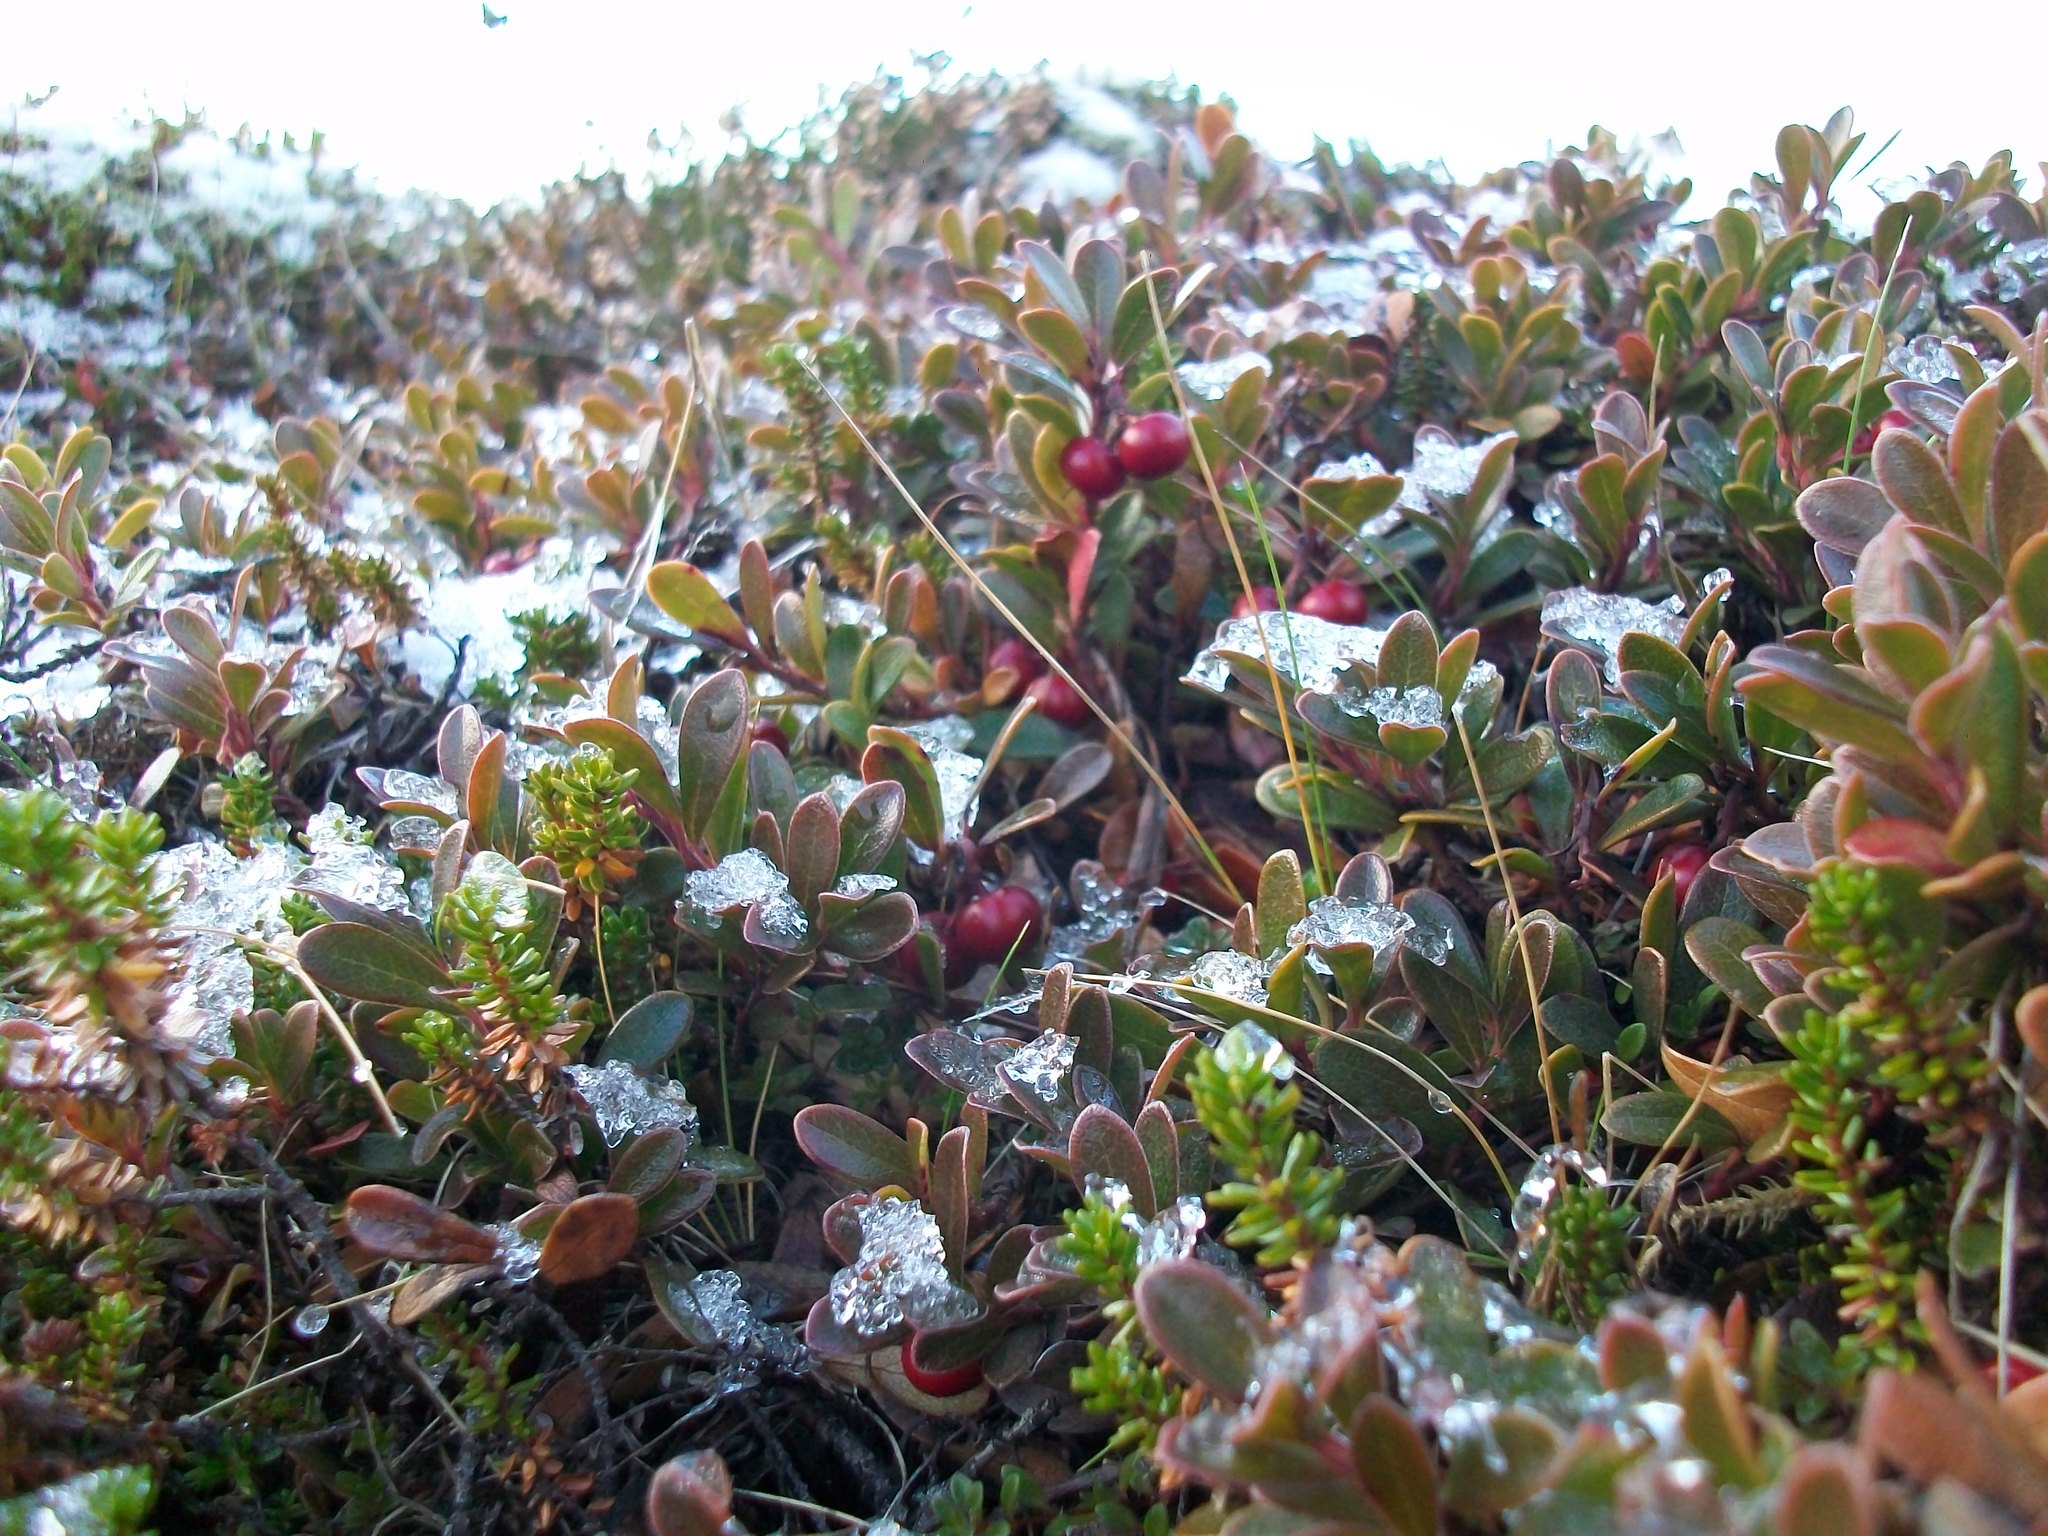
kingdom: Plantae
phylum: Tracheophyta
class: Magnoliopsida
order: Ericales
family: Ericaceae
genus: Arctostaphylos
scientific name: Arctostaphylos uva-ursi
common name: Bearberry
